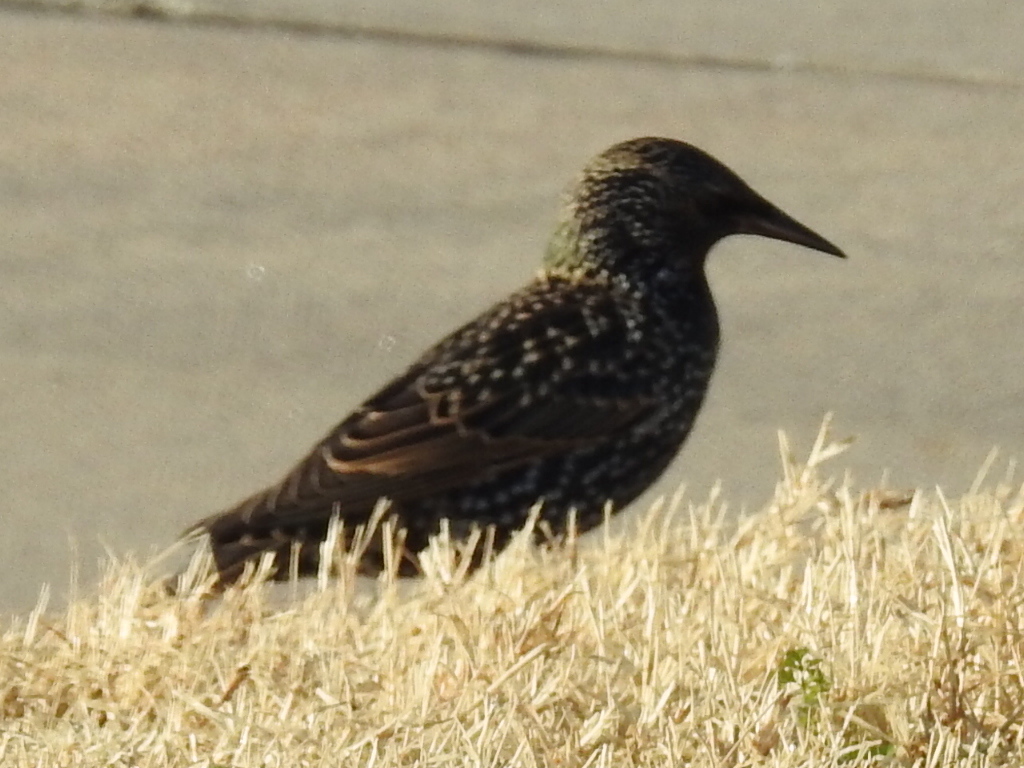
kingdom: Animalia
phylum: Chordata
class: Aves
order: Passeriformes
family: Sturnidae
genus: Sturnus
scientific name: Sturnus vulgaris
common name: Common starling
